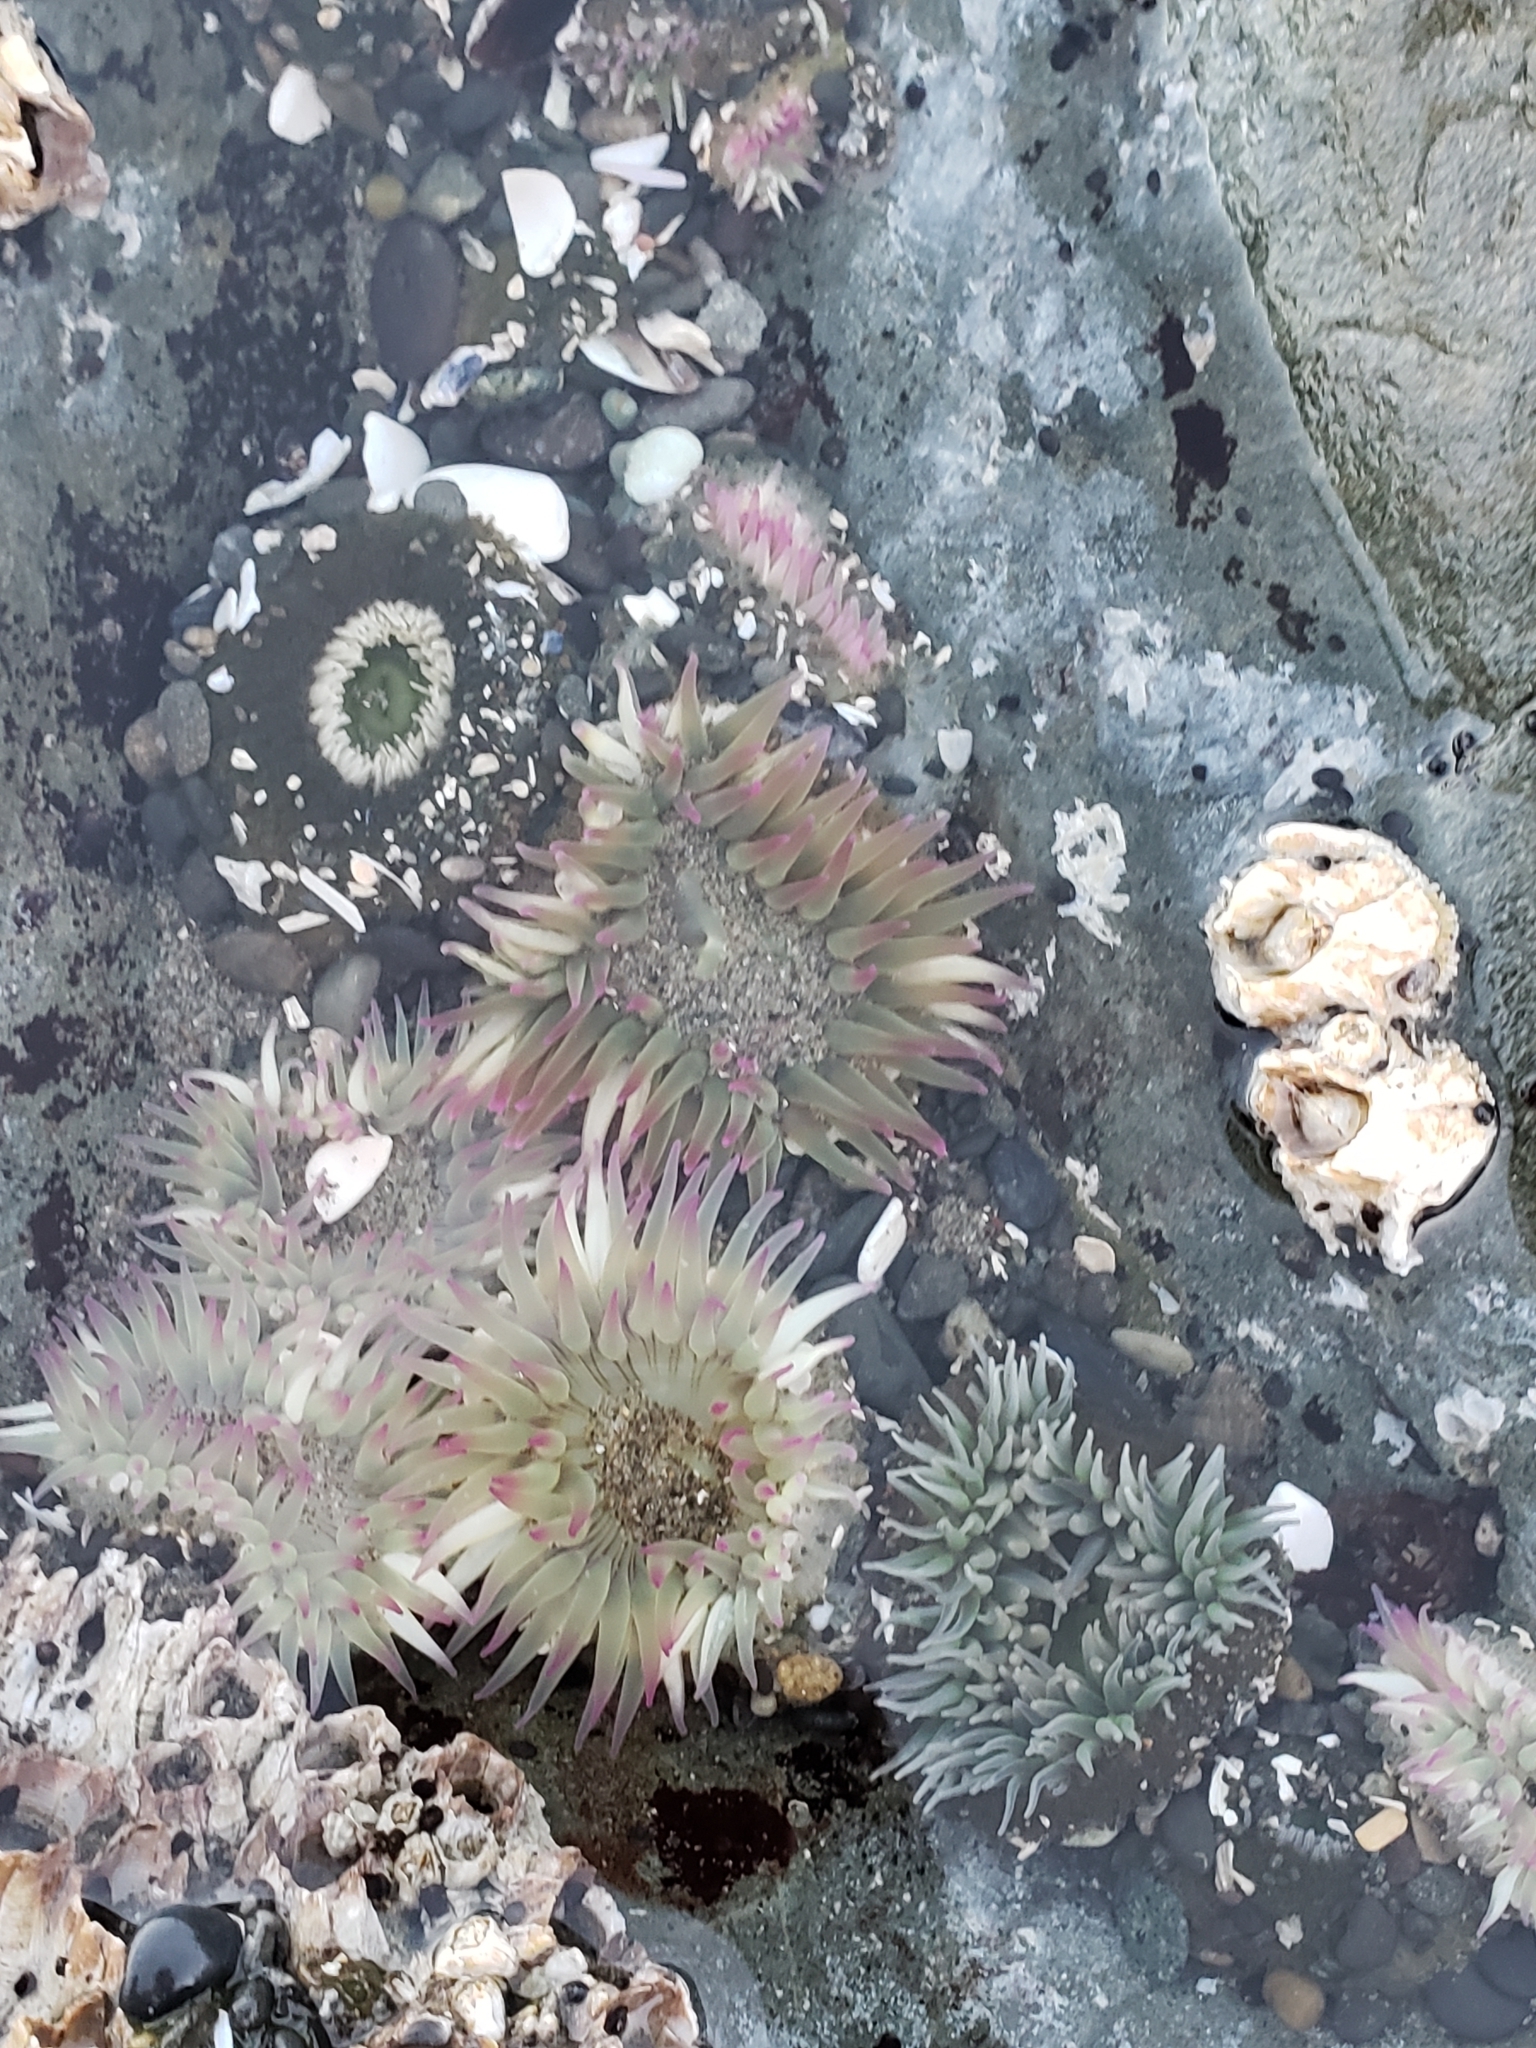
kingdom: Animalia
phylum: Cnidaria
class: Anthozoa
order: Actiniaria
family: Actiniidae
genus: Anthopleura
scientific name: Anthopleura elegantissima
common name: Clonal anemone
